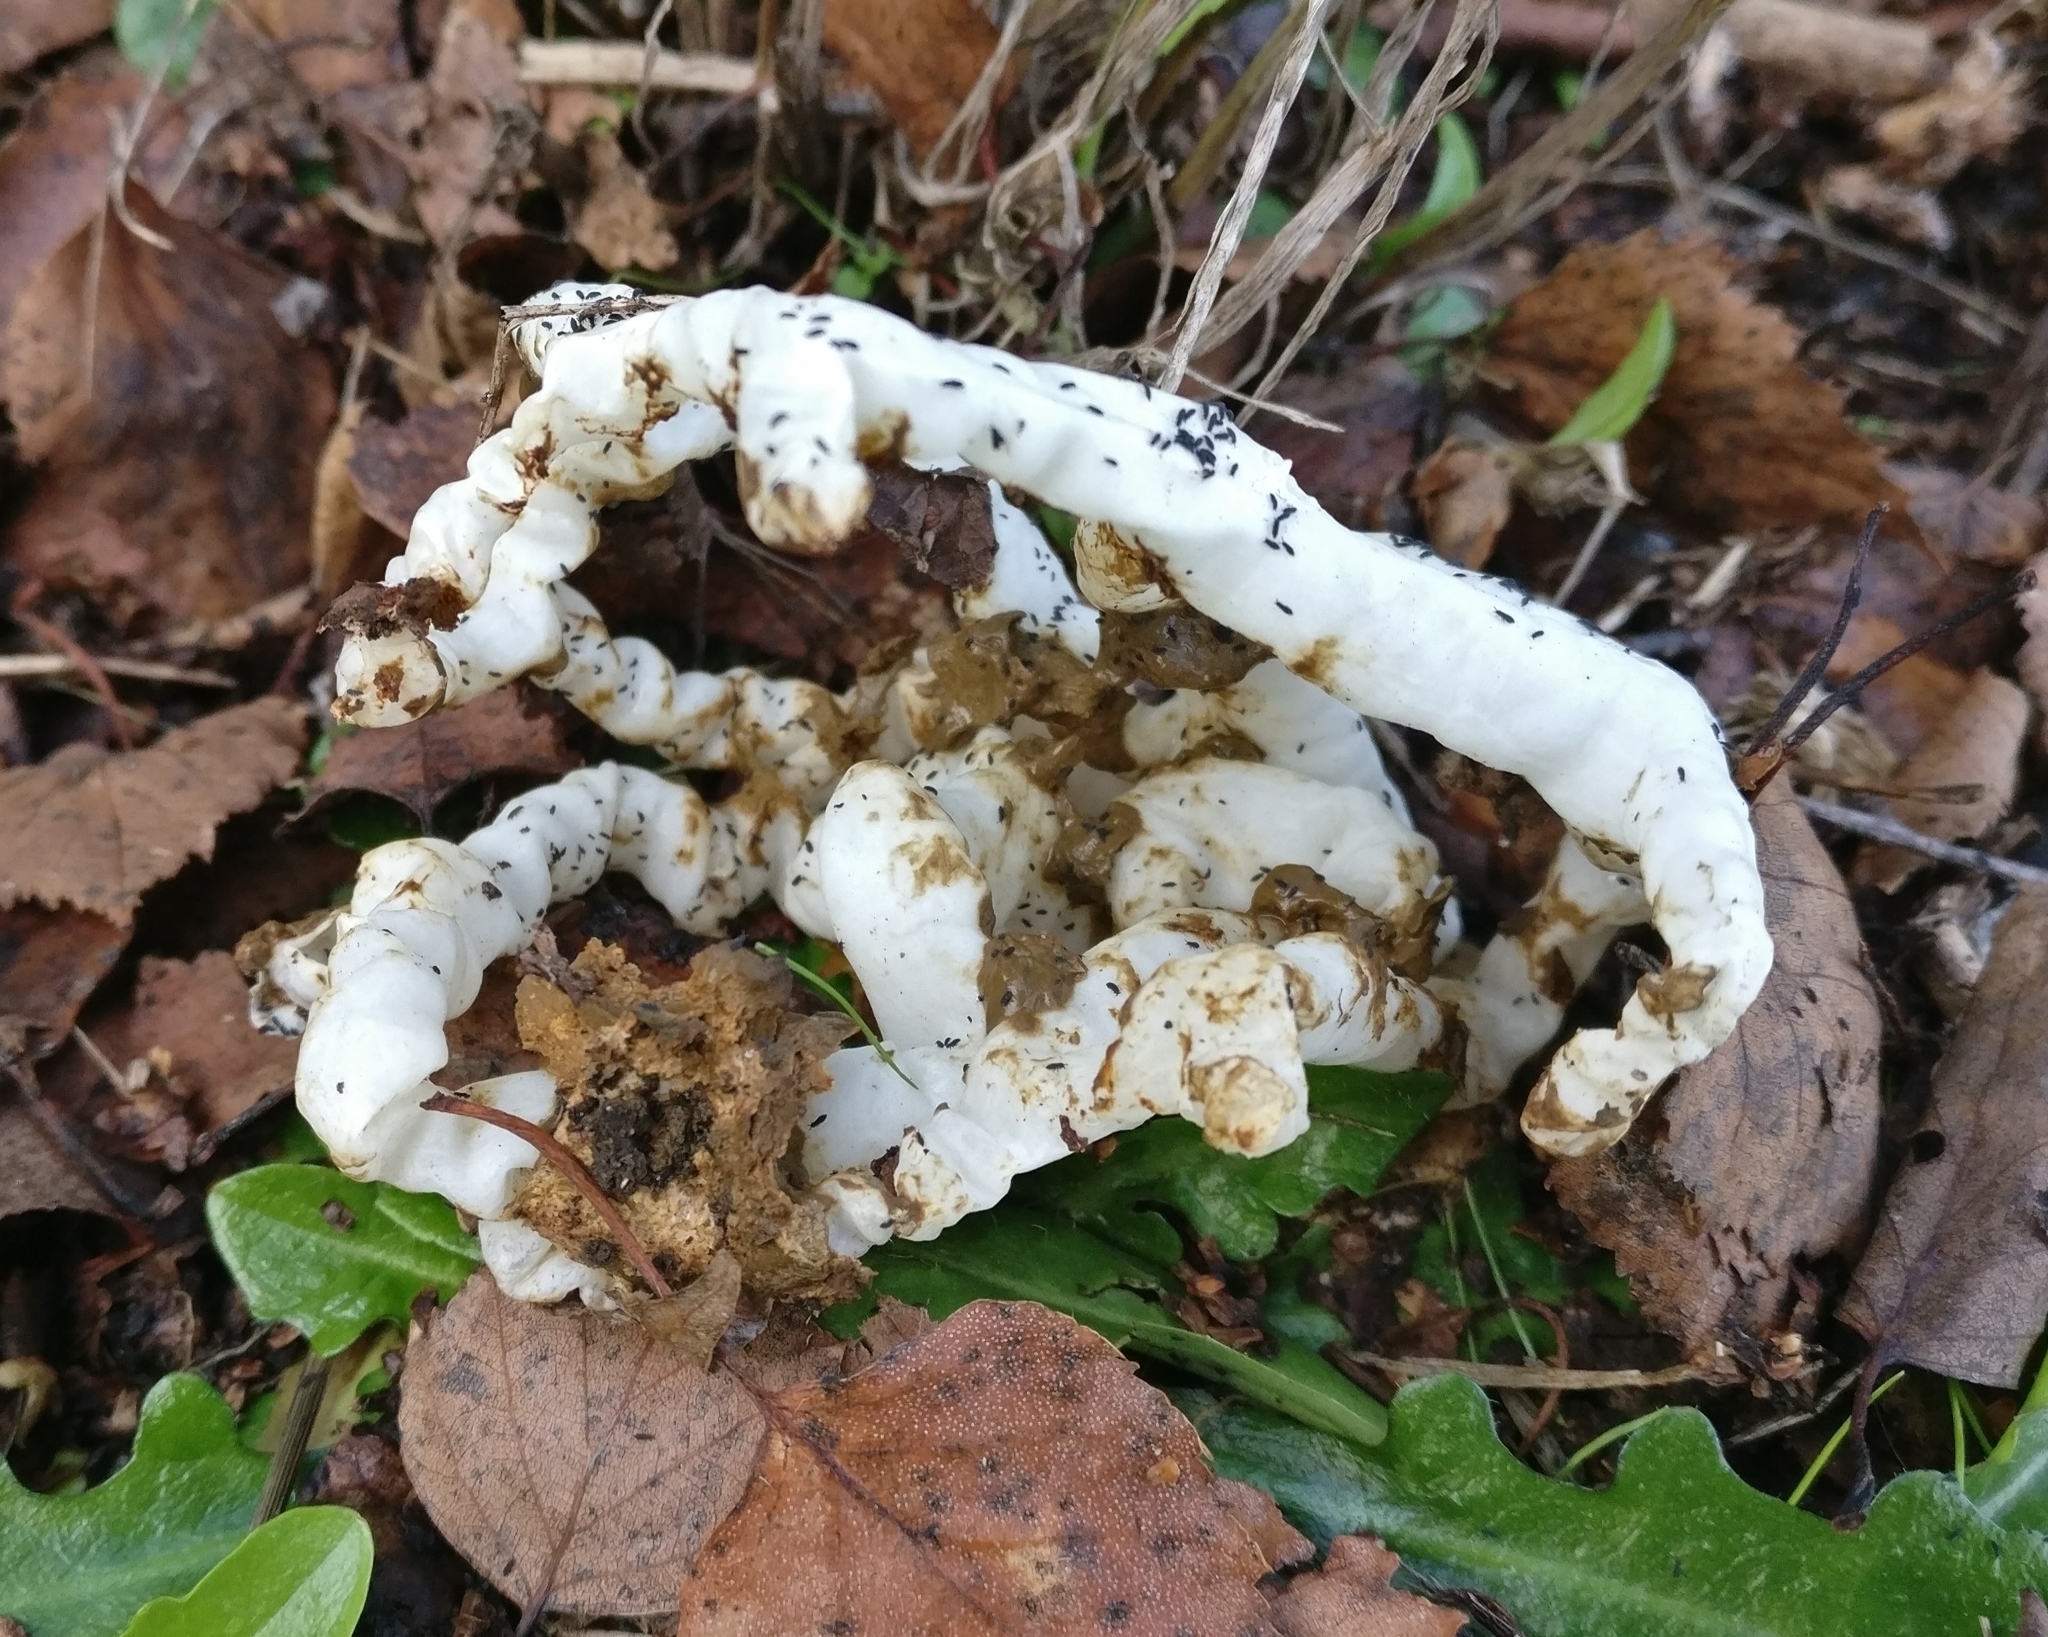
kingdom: Fungi
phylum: Basidiomycota
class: Agaricomycetes
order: Phallales
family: Phallaceae
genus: Ileodictyon
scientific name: Ileodictyon cibarium
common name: Basket fungus
